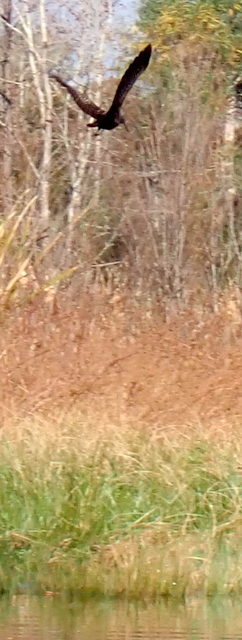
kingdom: Animalia
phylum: Chordata
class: Aves
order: Gruiformes
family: Aramidae
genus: Aramus
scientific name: Aramus guarauna
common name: Limpkin
